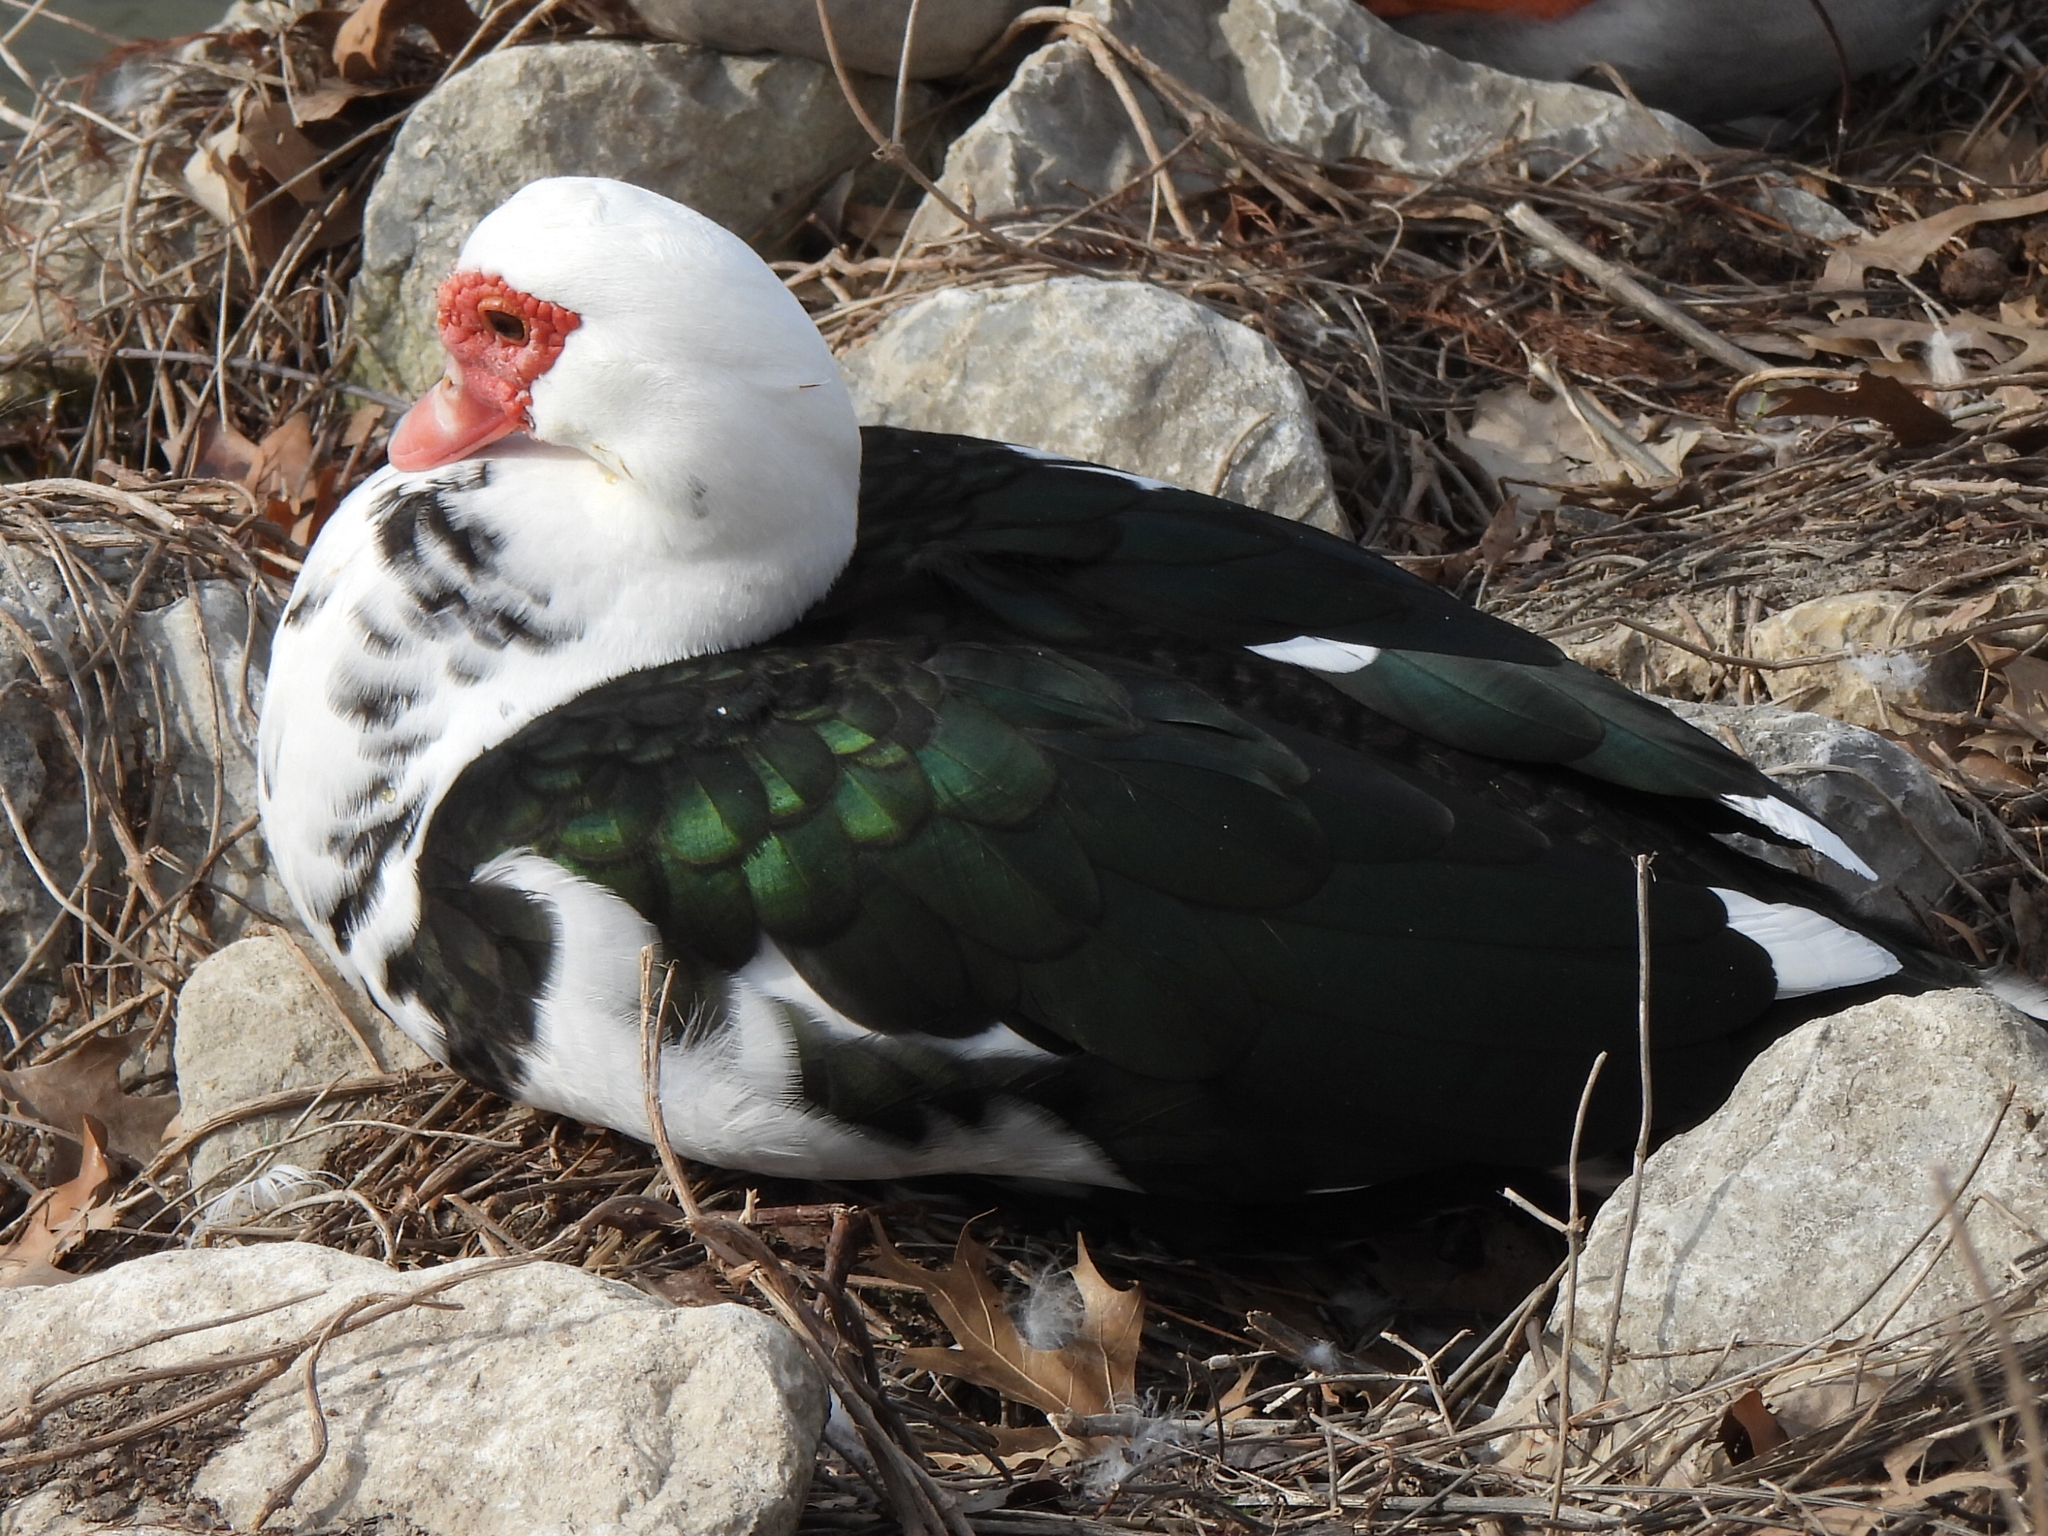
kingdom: Animalia
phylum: Chordata
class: Aves
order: Anseriformes
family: Anatidae
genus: Cairina
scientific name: Cairina moschata
